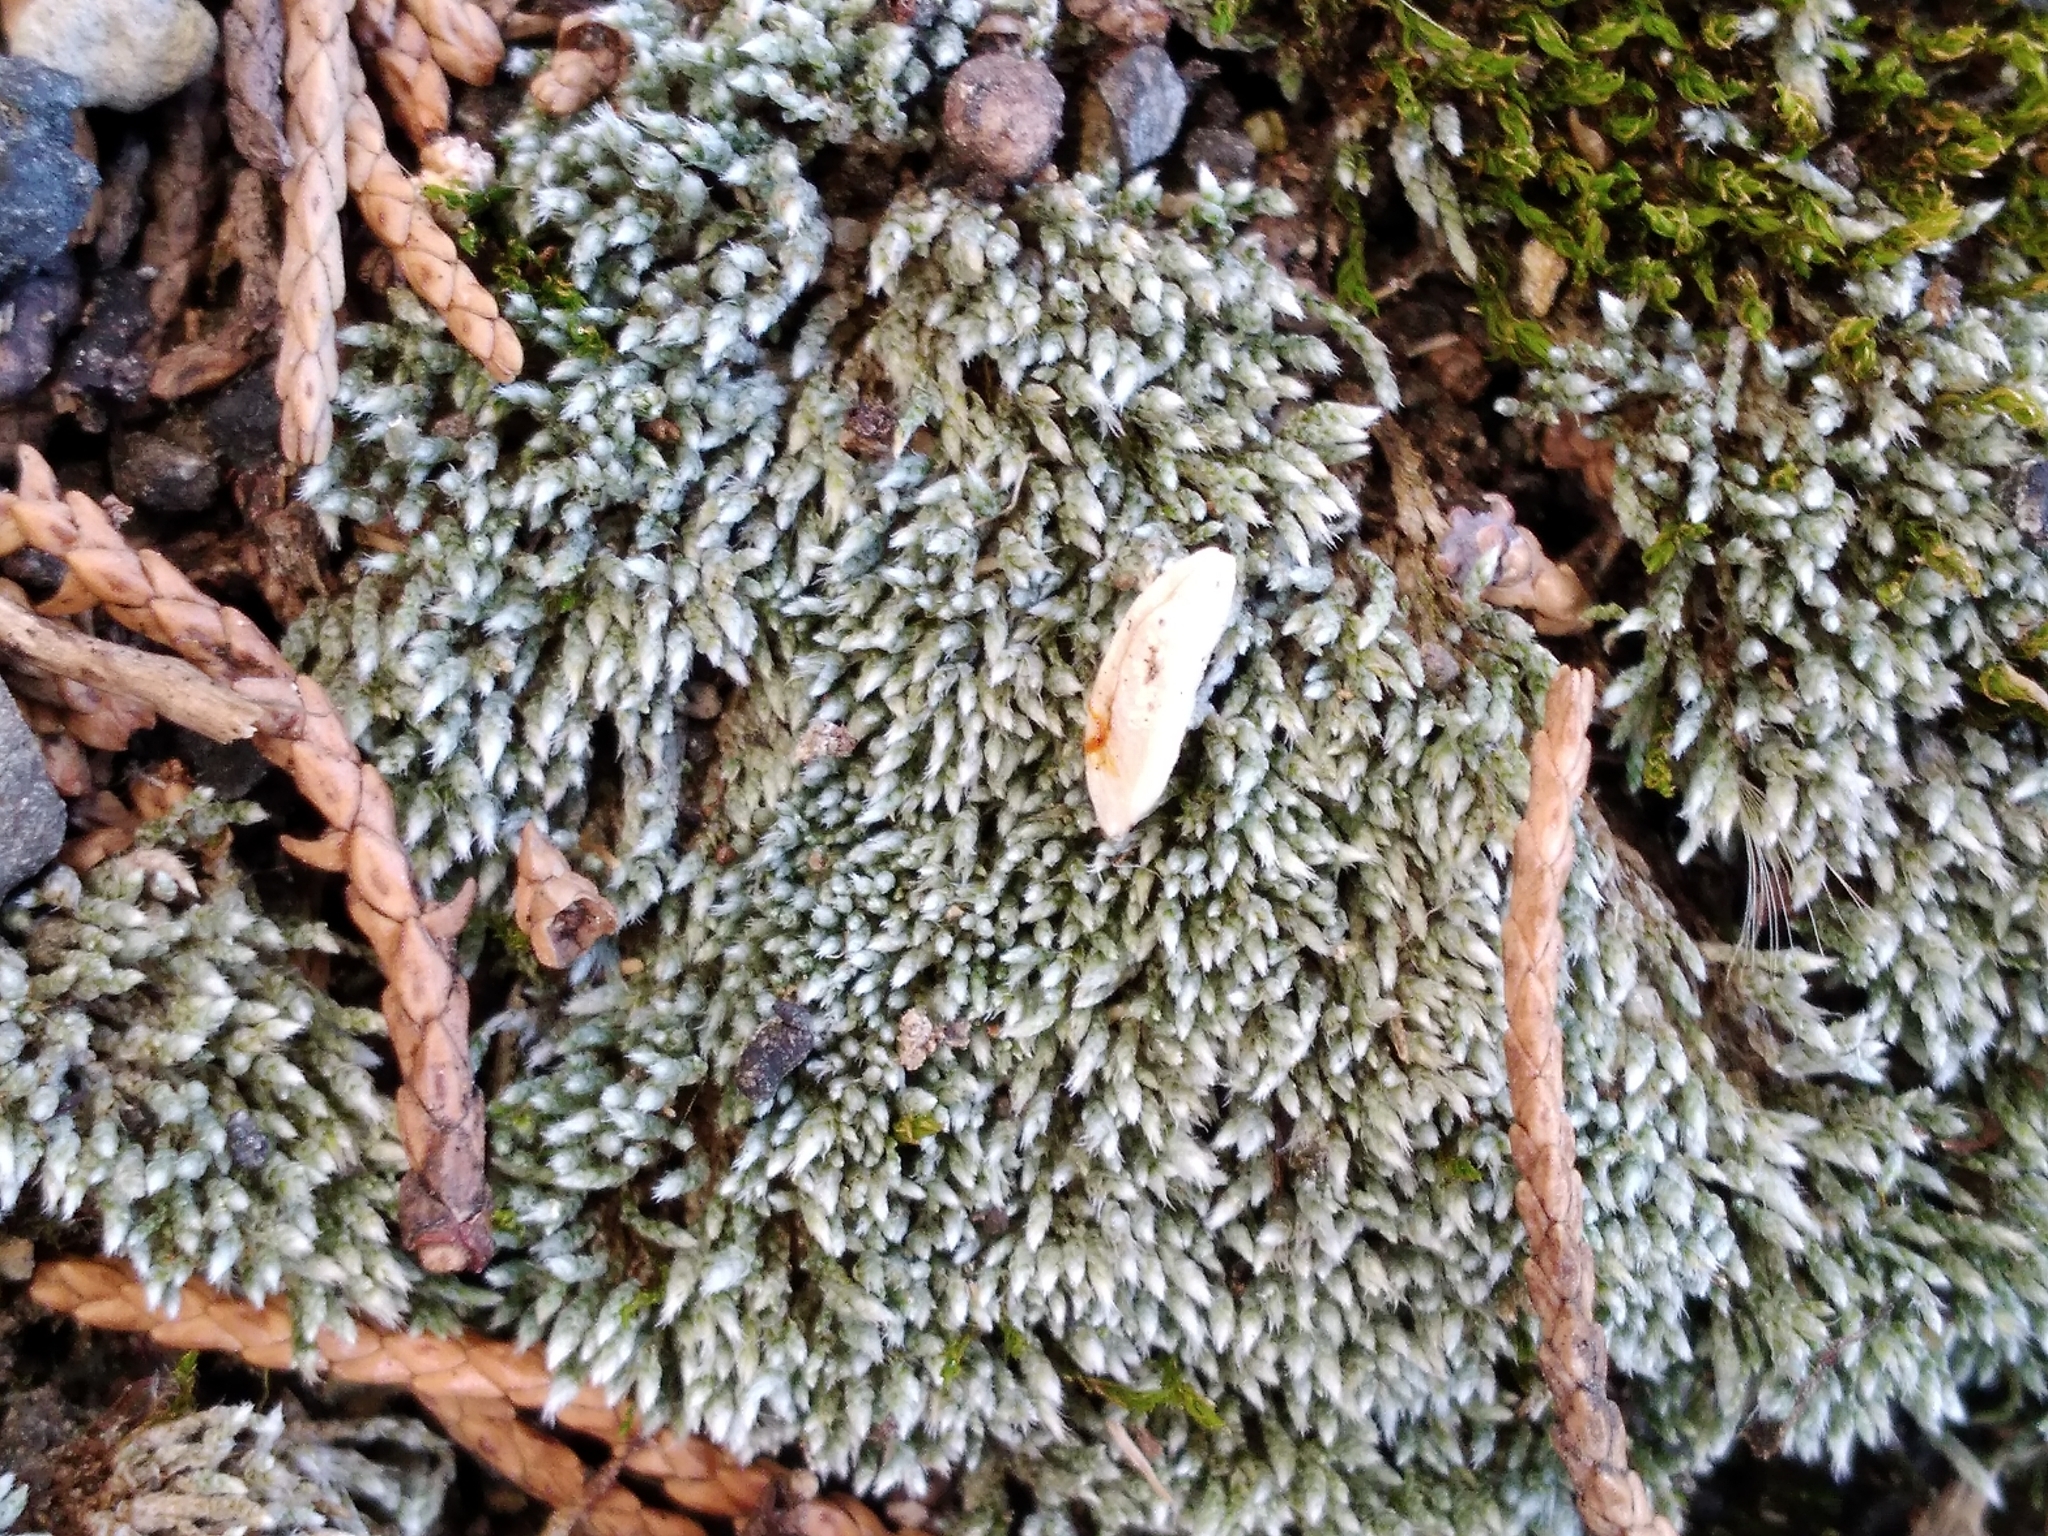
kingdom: Plantae
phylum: Bryophyta
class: Bryopsida
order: Bryales
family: Bryaceae
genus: Bryum
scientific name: Bryum argenteum
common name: Silver-moss
